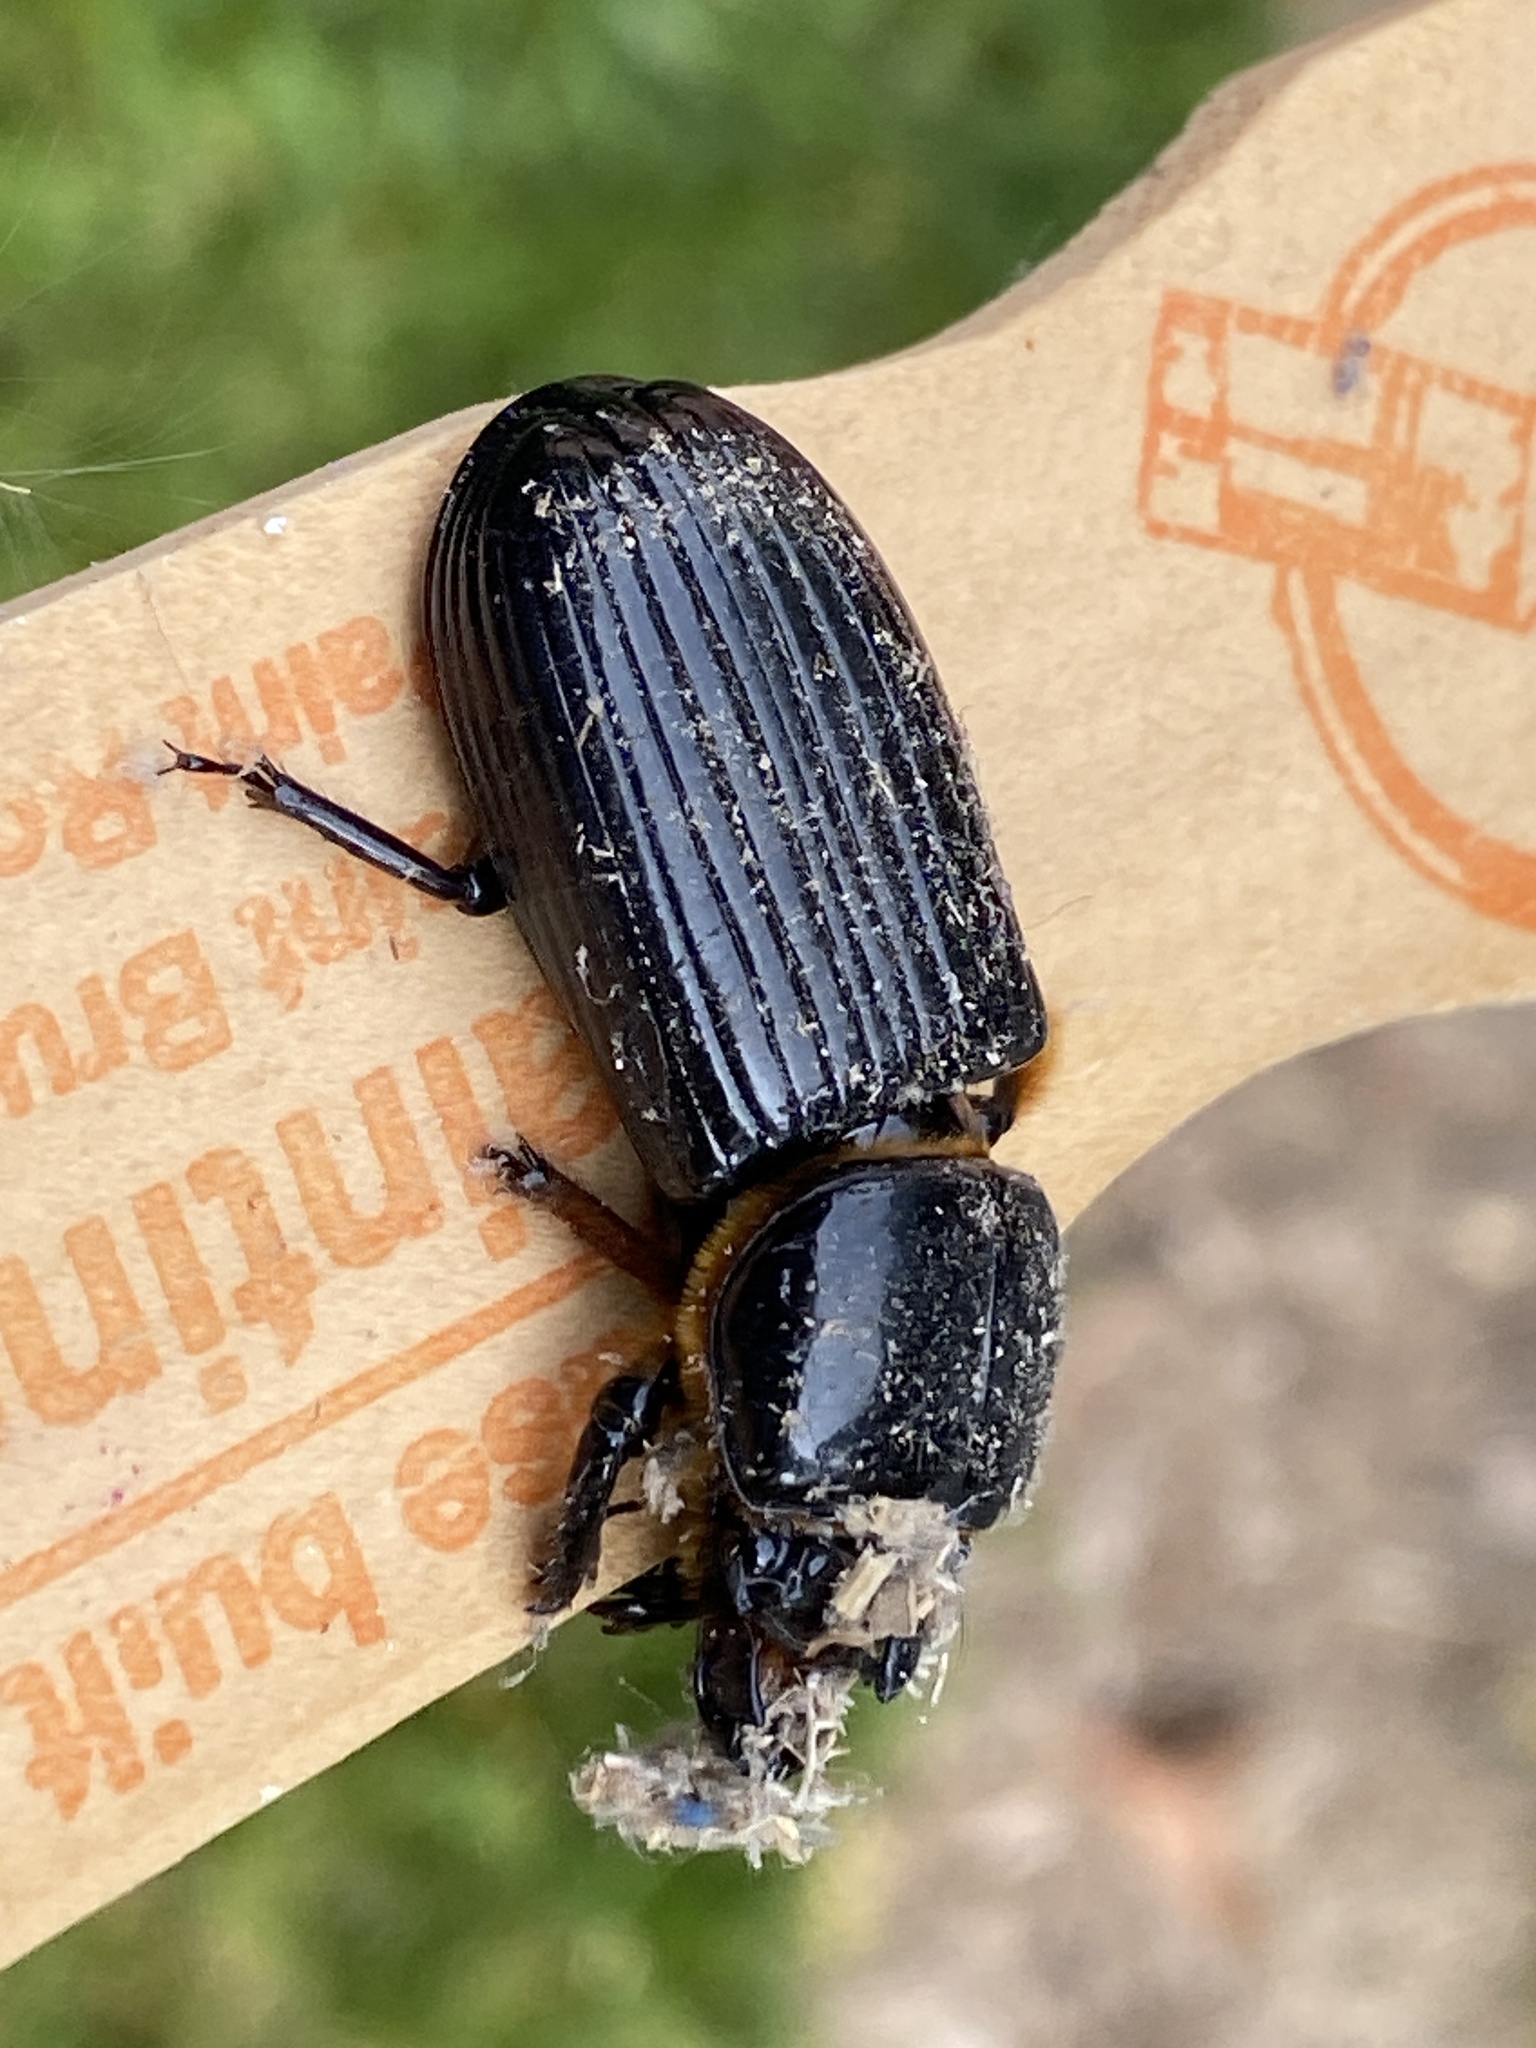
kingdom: Animalia
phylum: Arthropoda
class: Insecta
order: Coleoptera
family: Passalidae
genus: Odontotaenius
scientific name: Odontotaenius disjunctus
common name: Patent leather beetle
